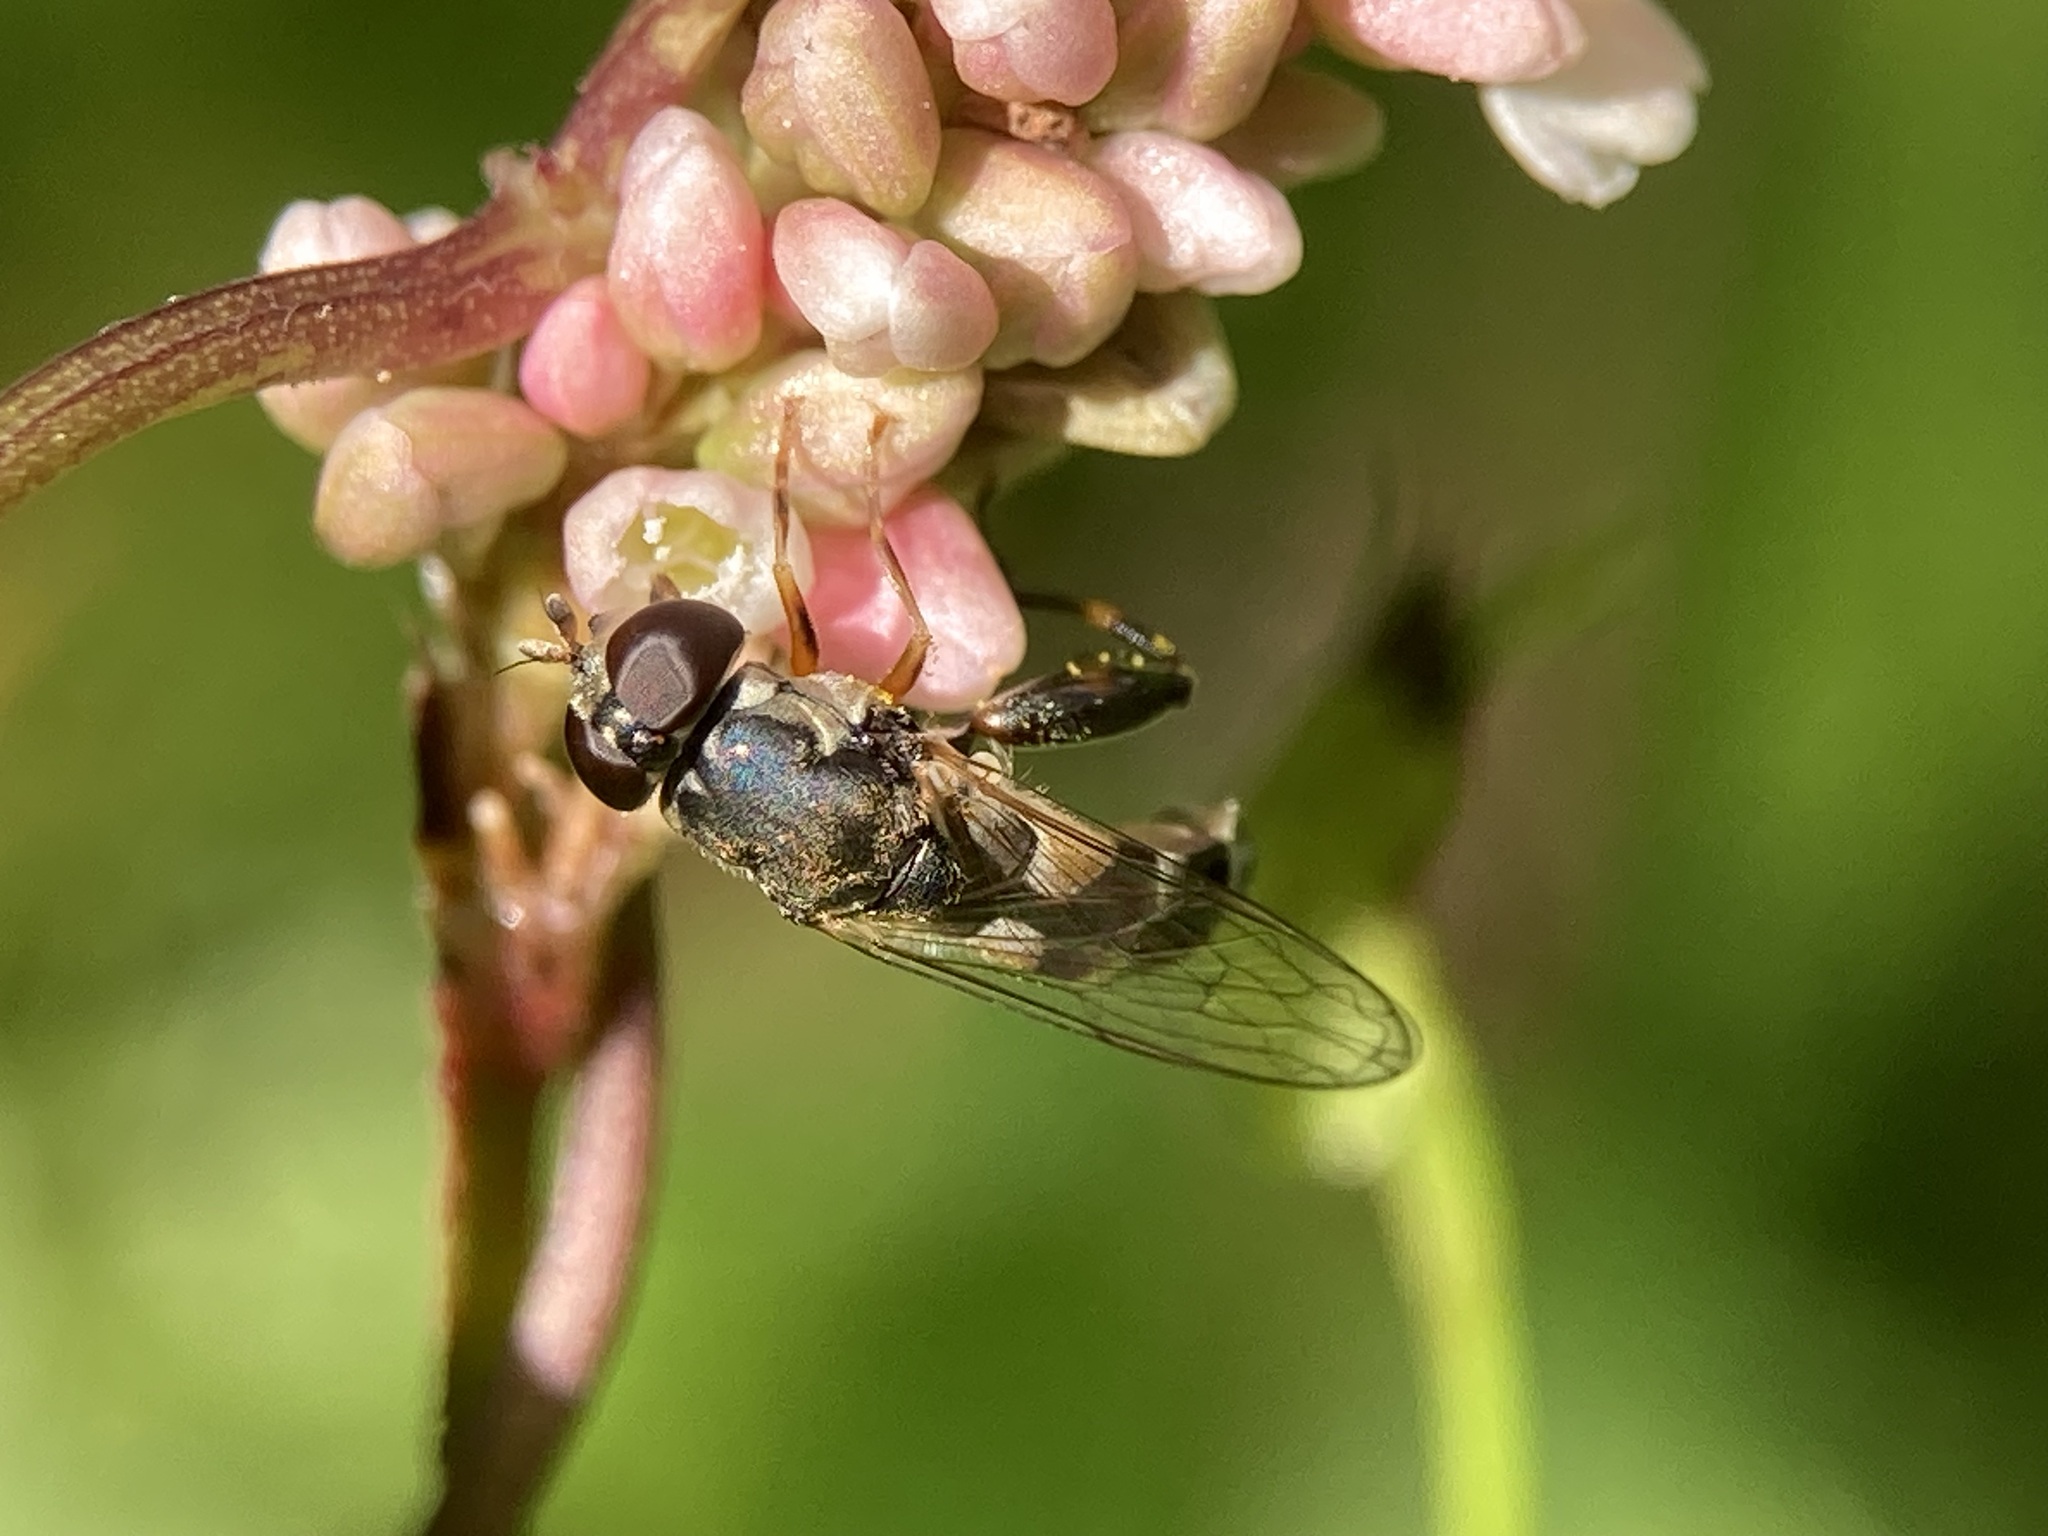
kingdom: Animalia
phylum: Arthropoda
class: Insecta
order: Diptera
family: Syrphidae
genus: Syritta
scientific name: Syritta pipiens
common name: Hover fly
